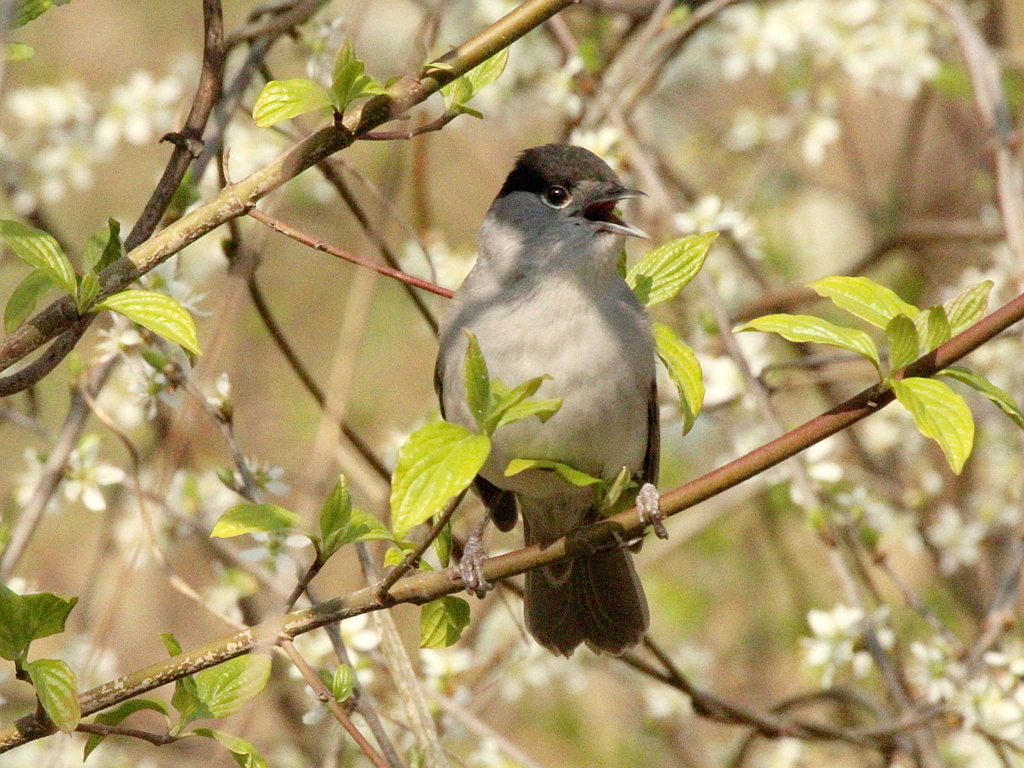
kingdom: Animalia
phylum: Chordata
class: Aves
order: Passeriformes
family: Sylviidae
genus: Sylvia
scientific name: Sylvia atricapilla
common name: Eurasian blackcap
